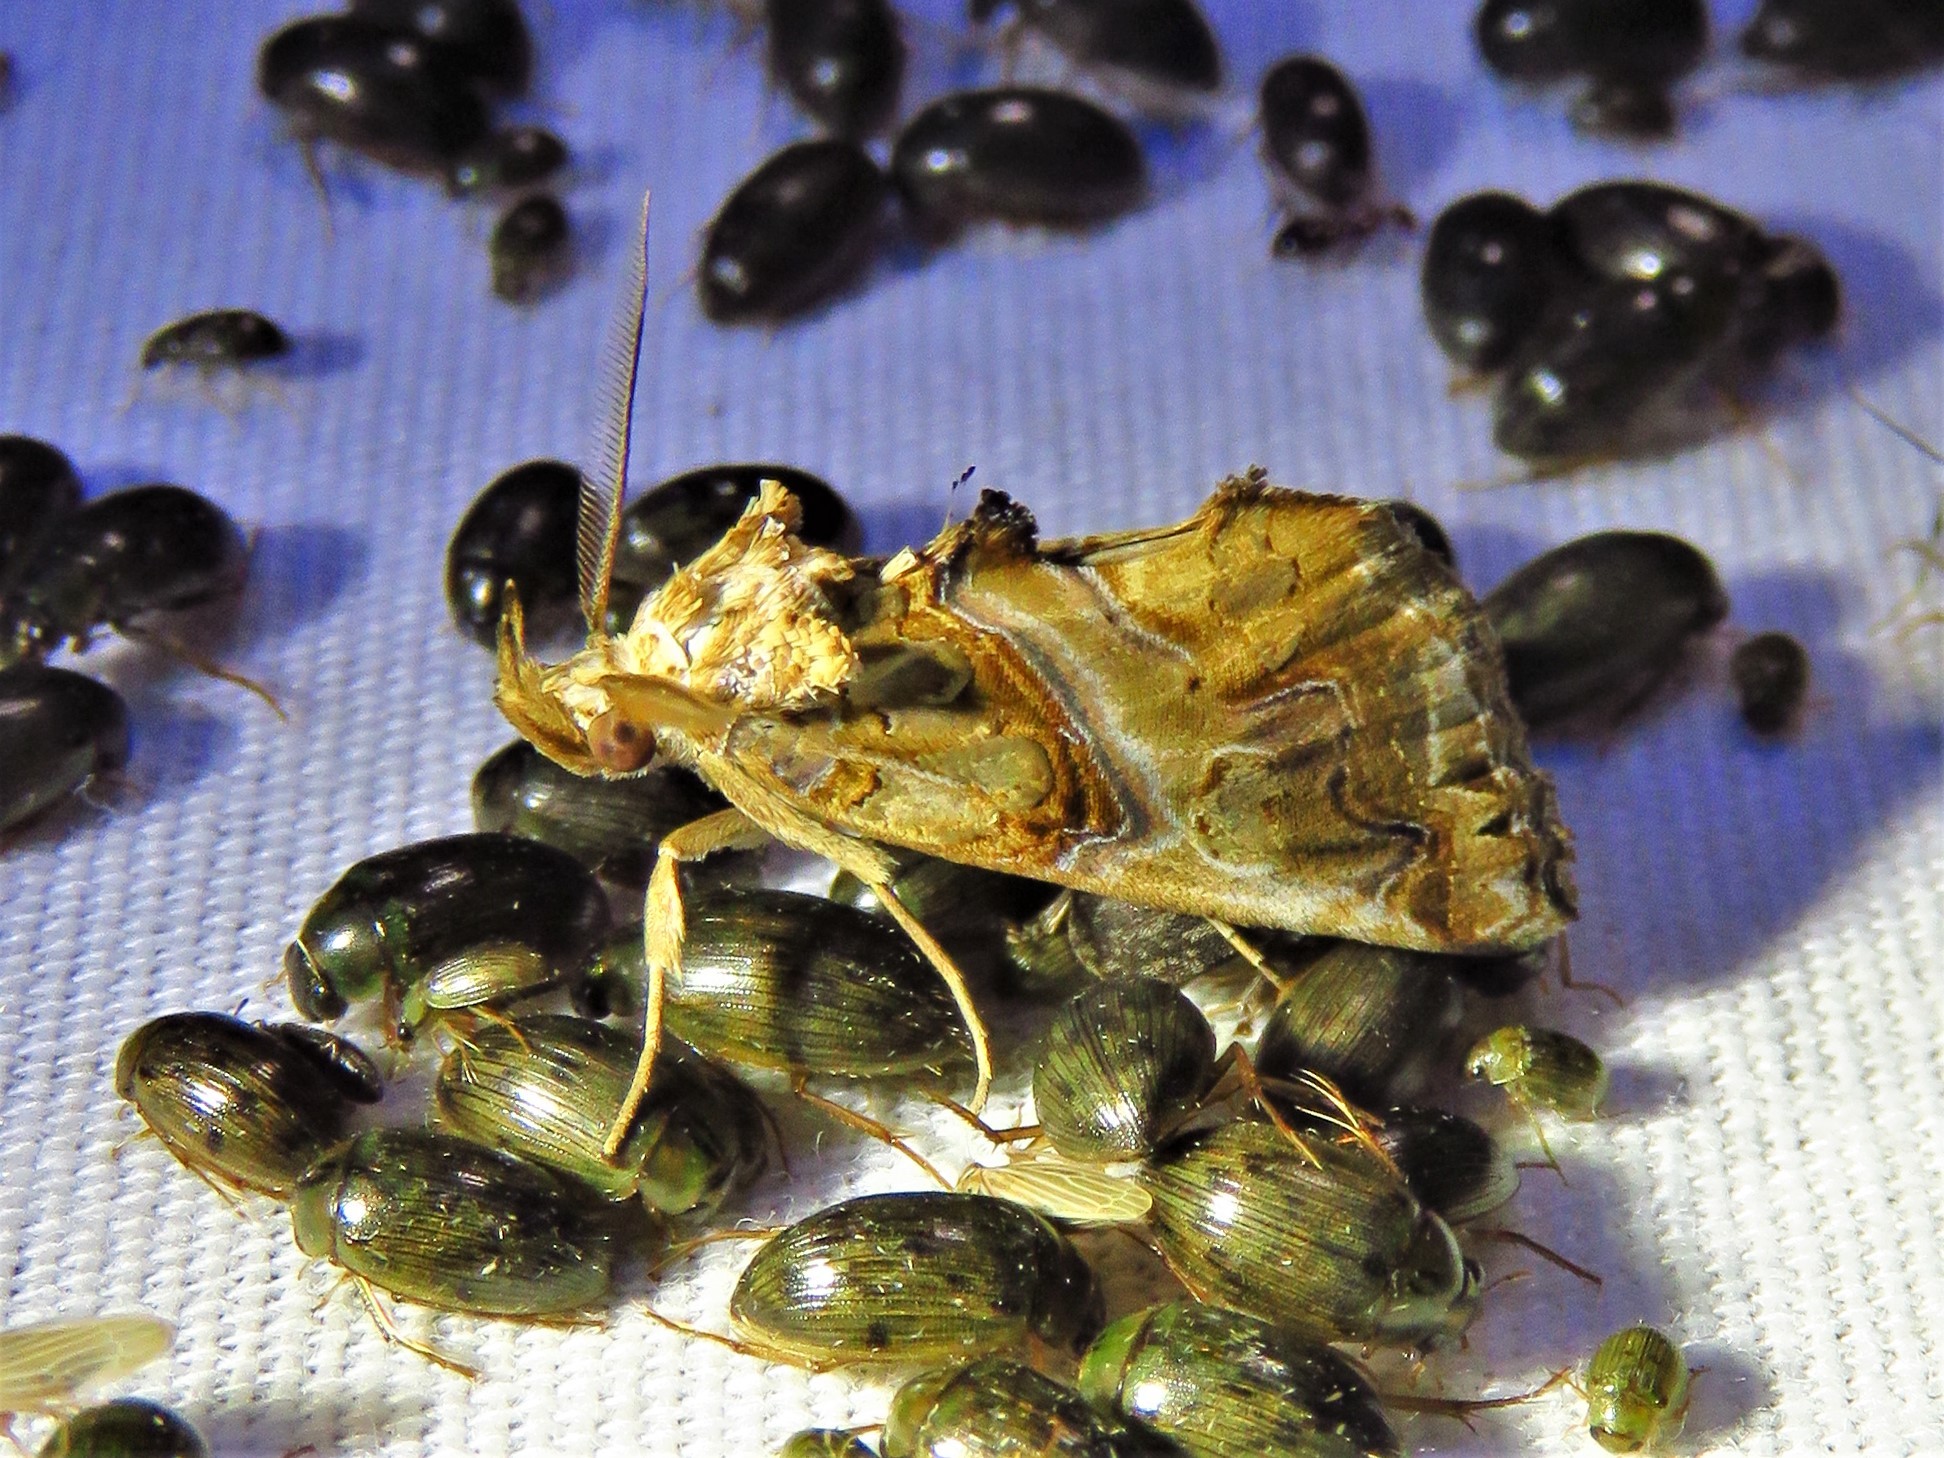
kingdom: Animalia
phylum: Arthropoda
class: Insecta
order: Lepidoptera
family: Erebidae
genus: Plusiodonta
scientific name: Plusiodonta compressipalpis
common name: Moonseed moth
